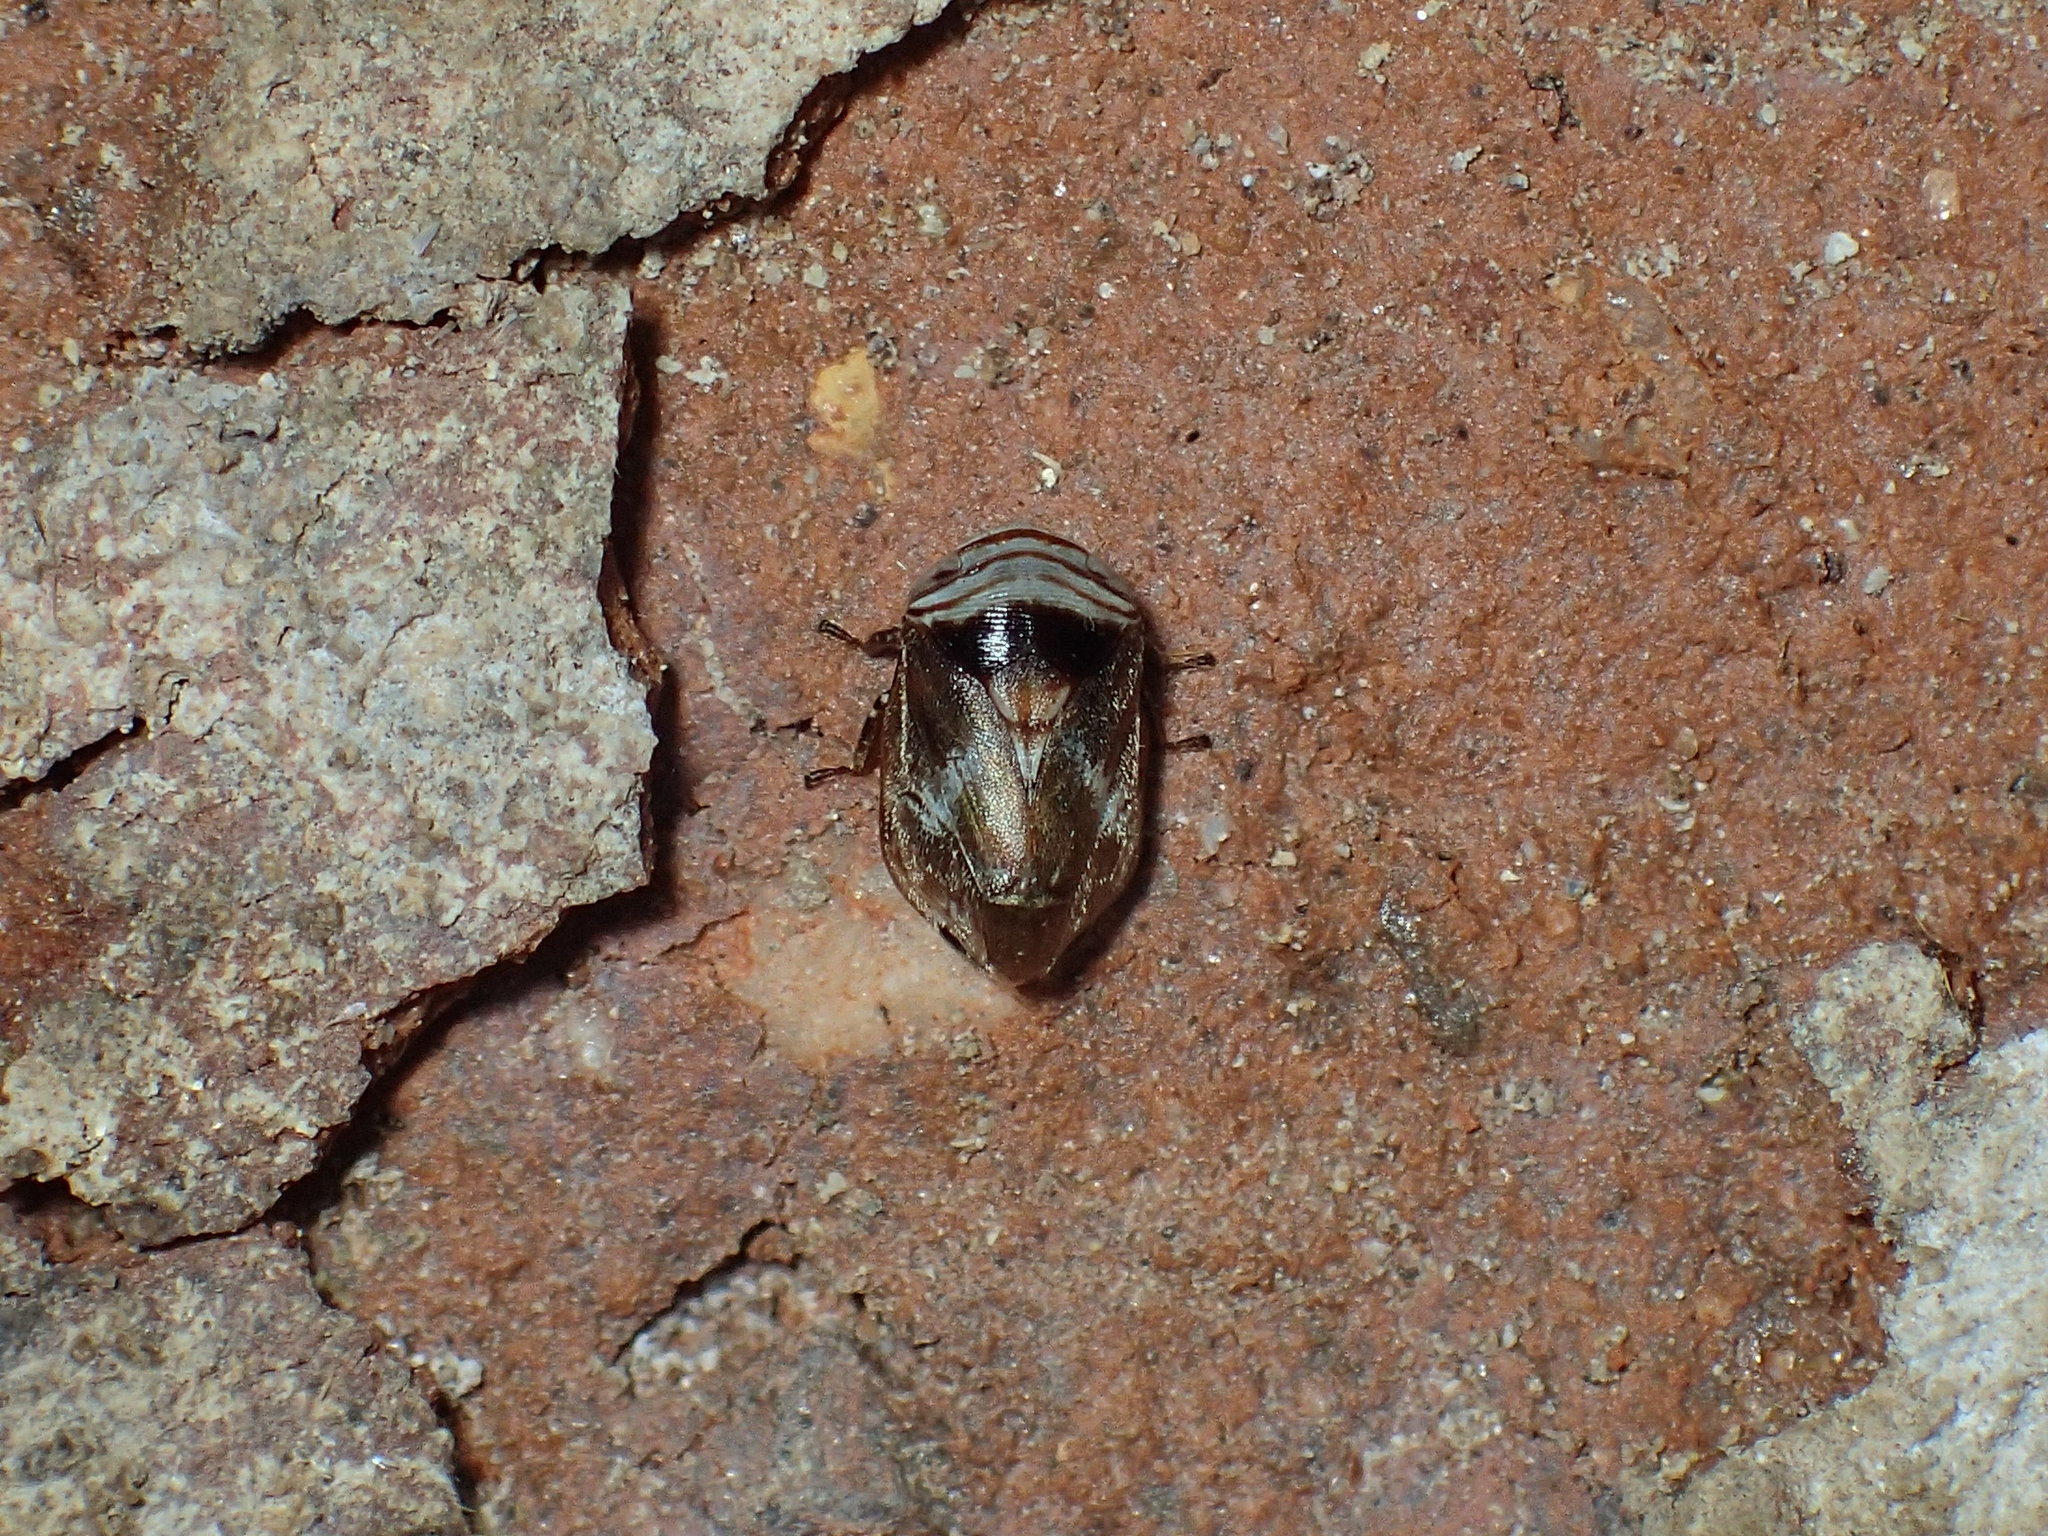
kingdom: Animalia
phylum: Arthropoda
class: Insecta
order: Hemiptera
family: Clastopteridae
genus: Clastoptera
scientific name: Clastoptera obtusa
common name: Alder spittlebug
